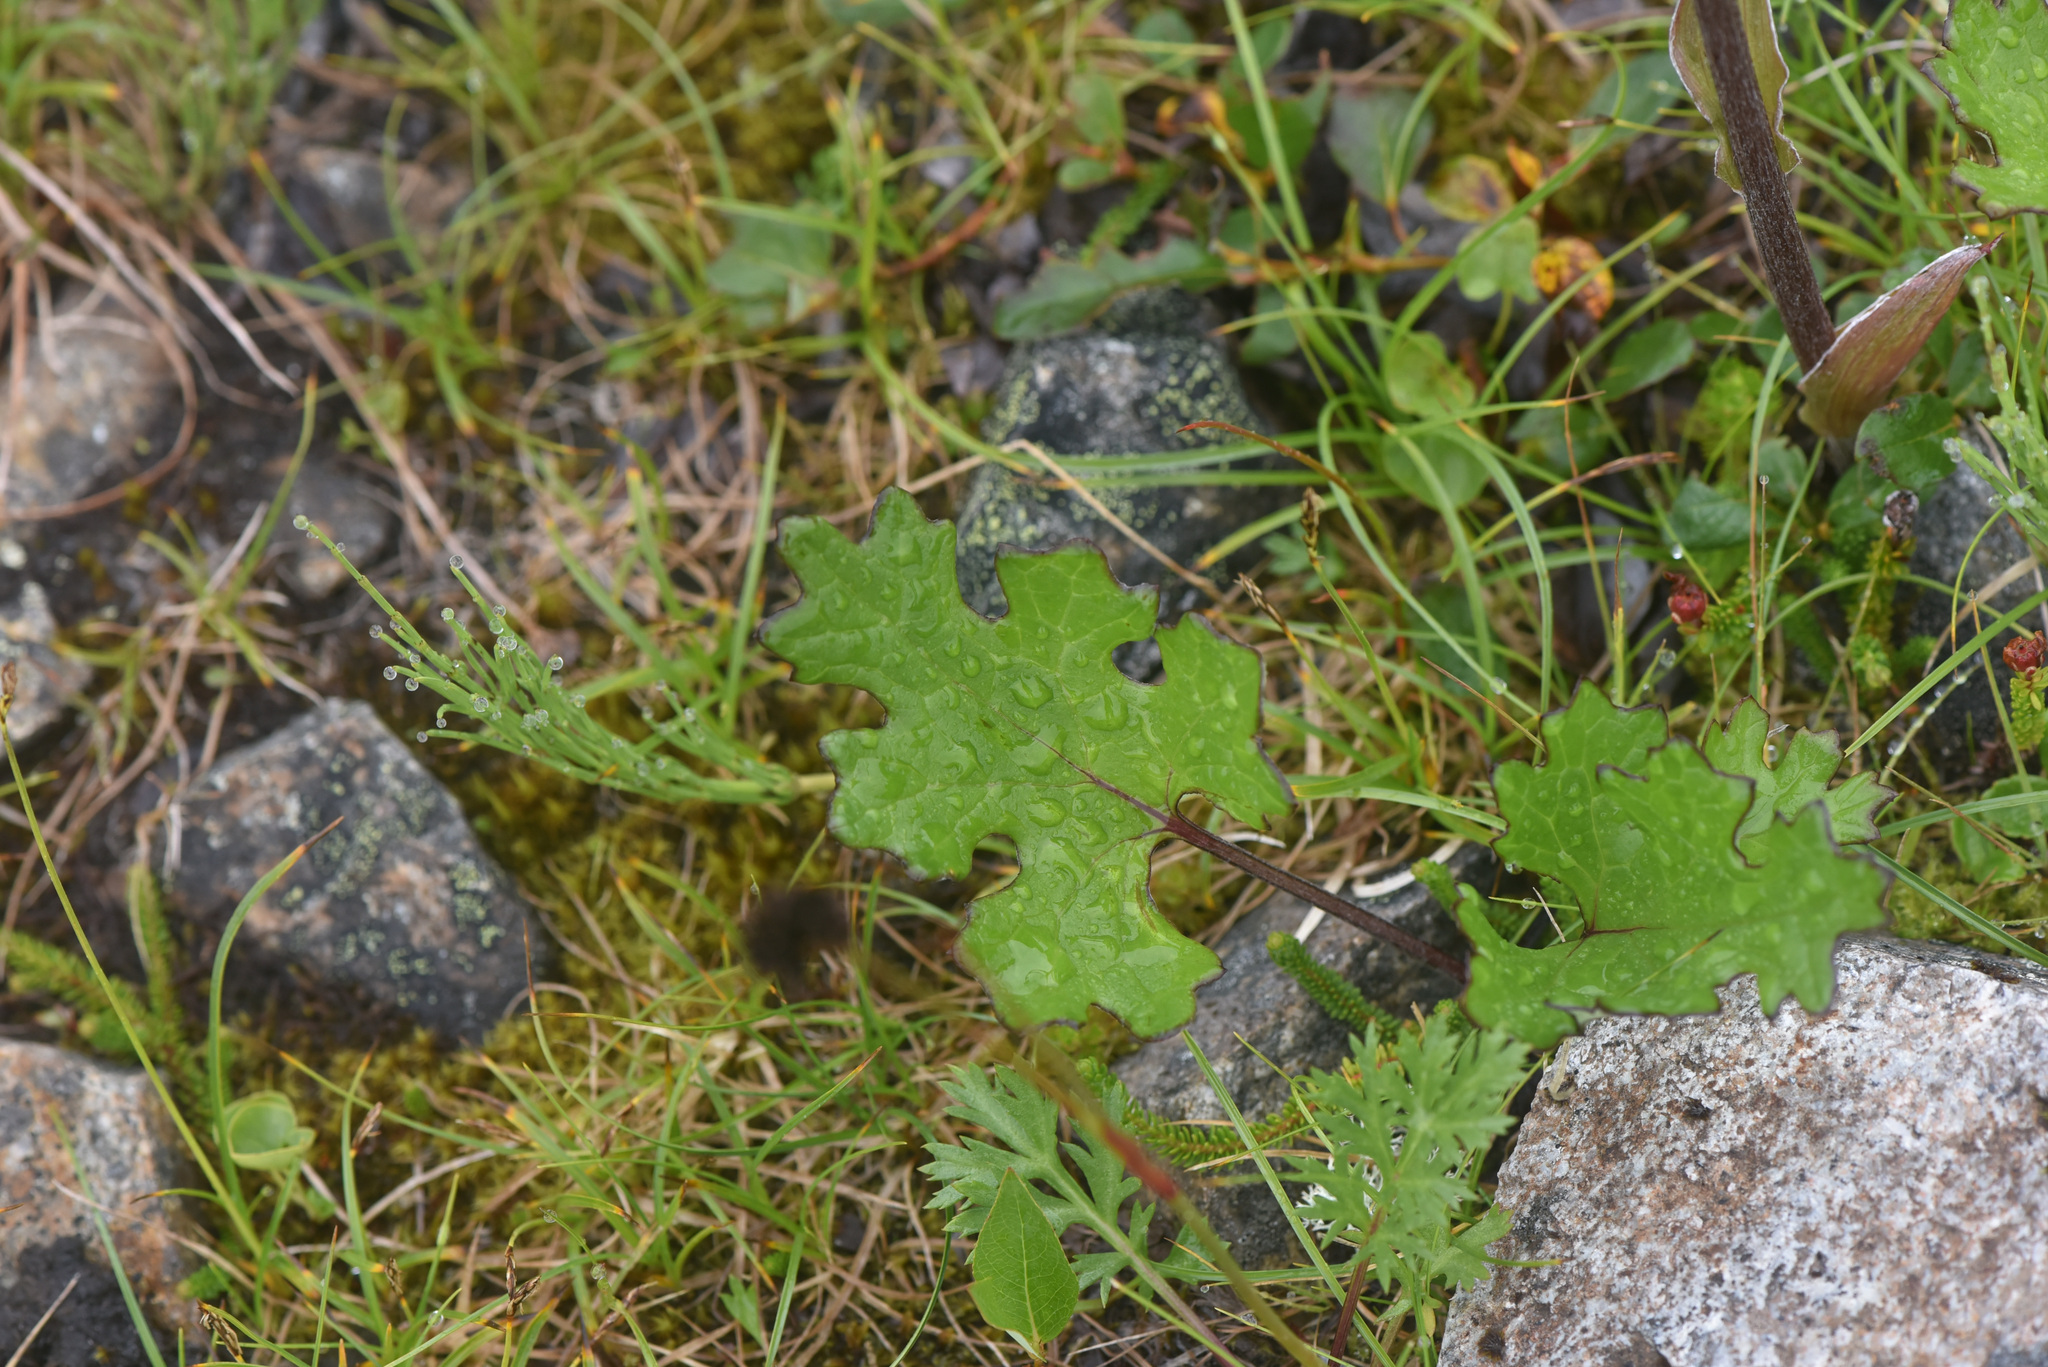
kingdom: Plantae
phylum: Tracheophyta
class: Magnoliopsida
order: Asterales
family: Asteraceae
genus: Petasites
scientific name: Petasites frigidus
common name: Arctic butterbur
